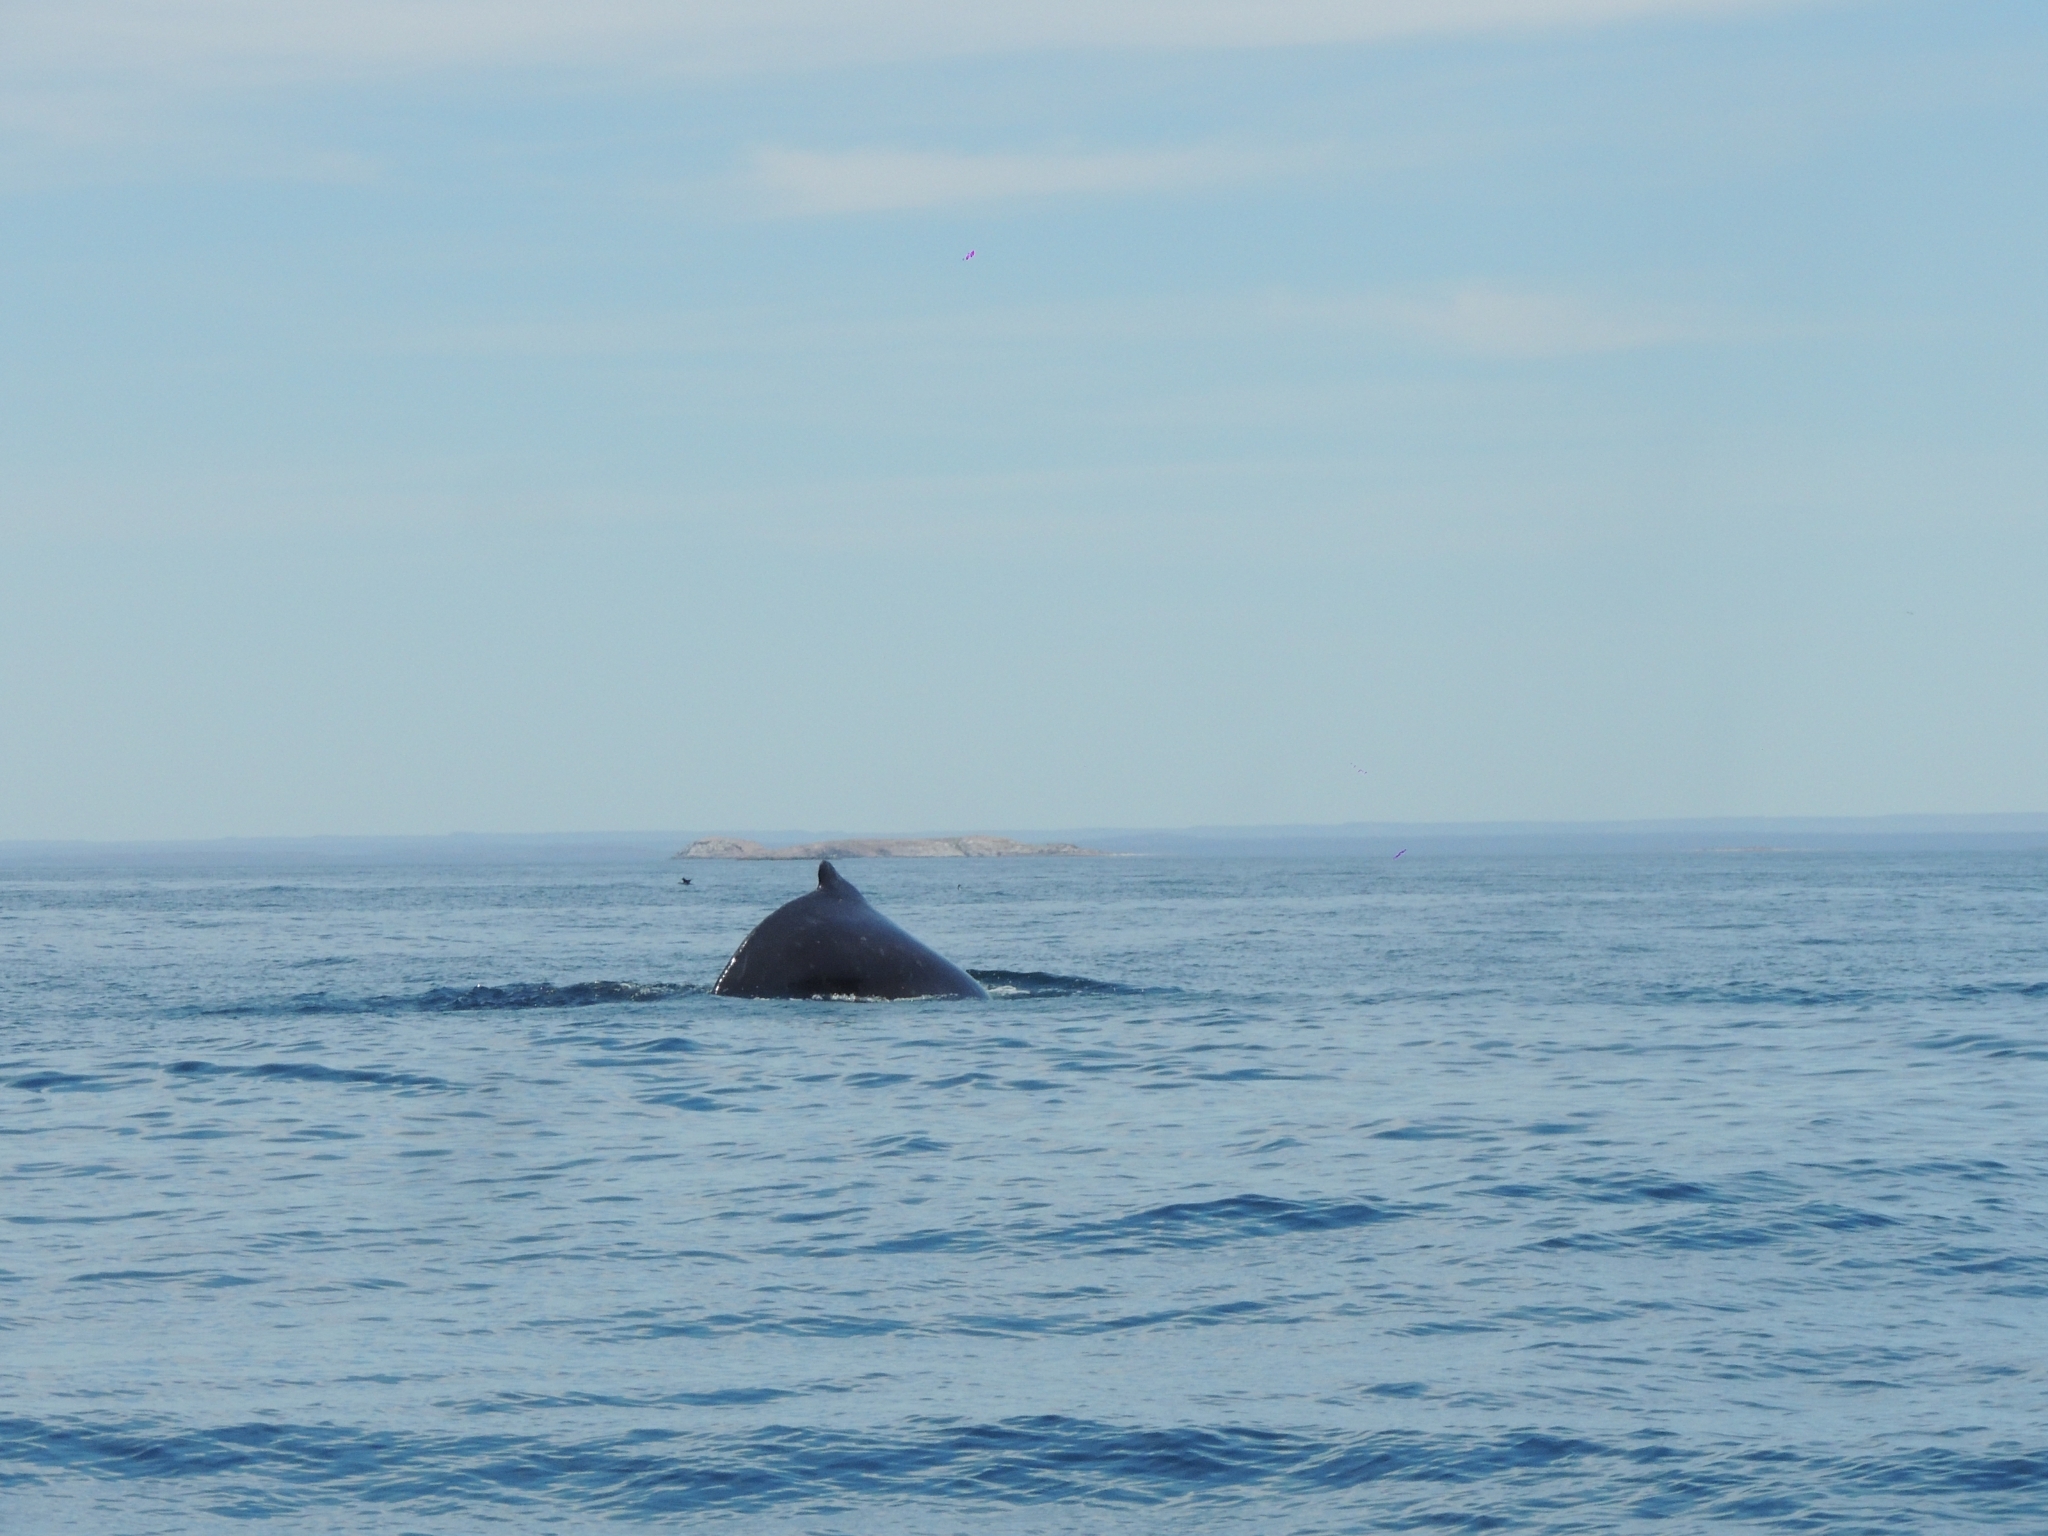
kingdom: Animalia
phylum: Chordata
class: Mammalia
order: Cetacea
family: Balaenopteridae
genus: Megaptera
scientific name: Megaptera novaeangliae
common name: Humpback whale
